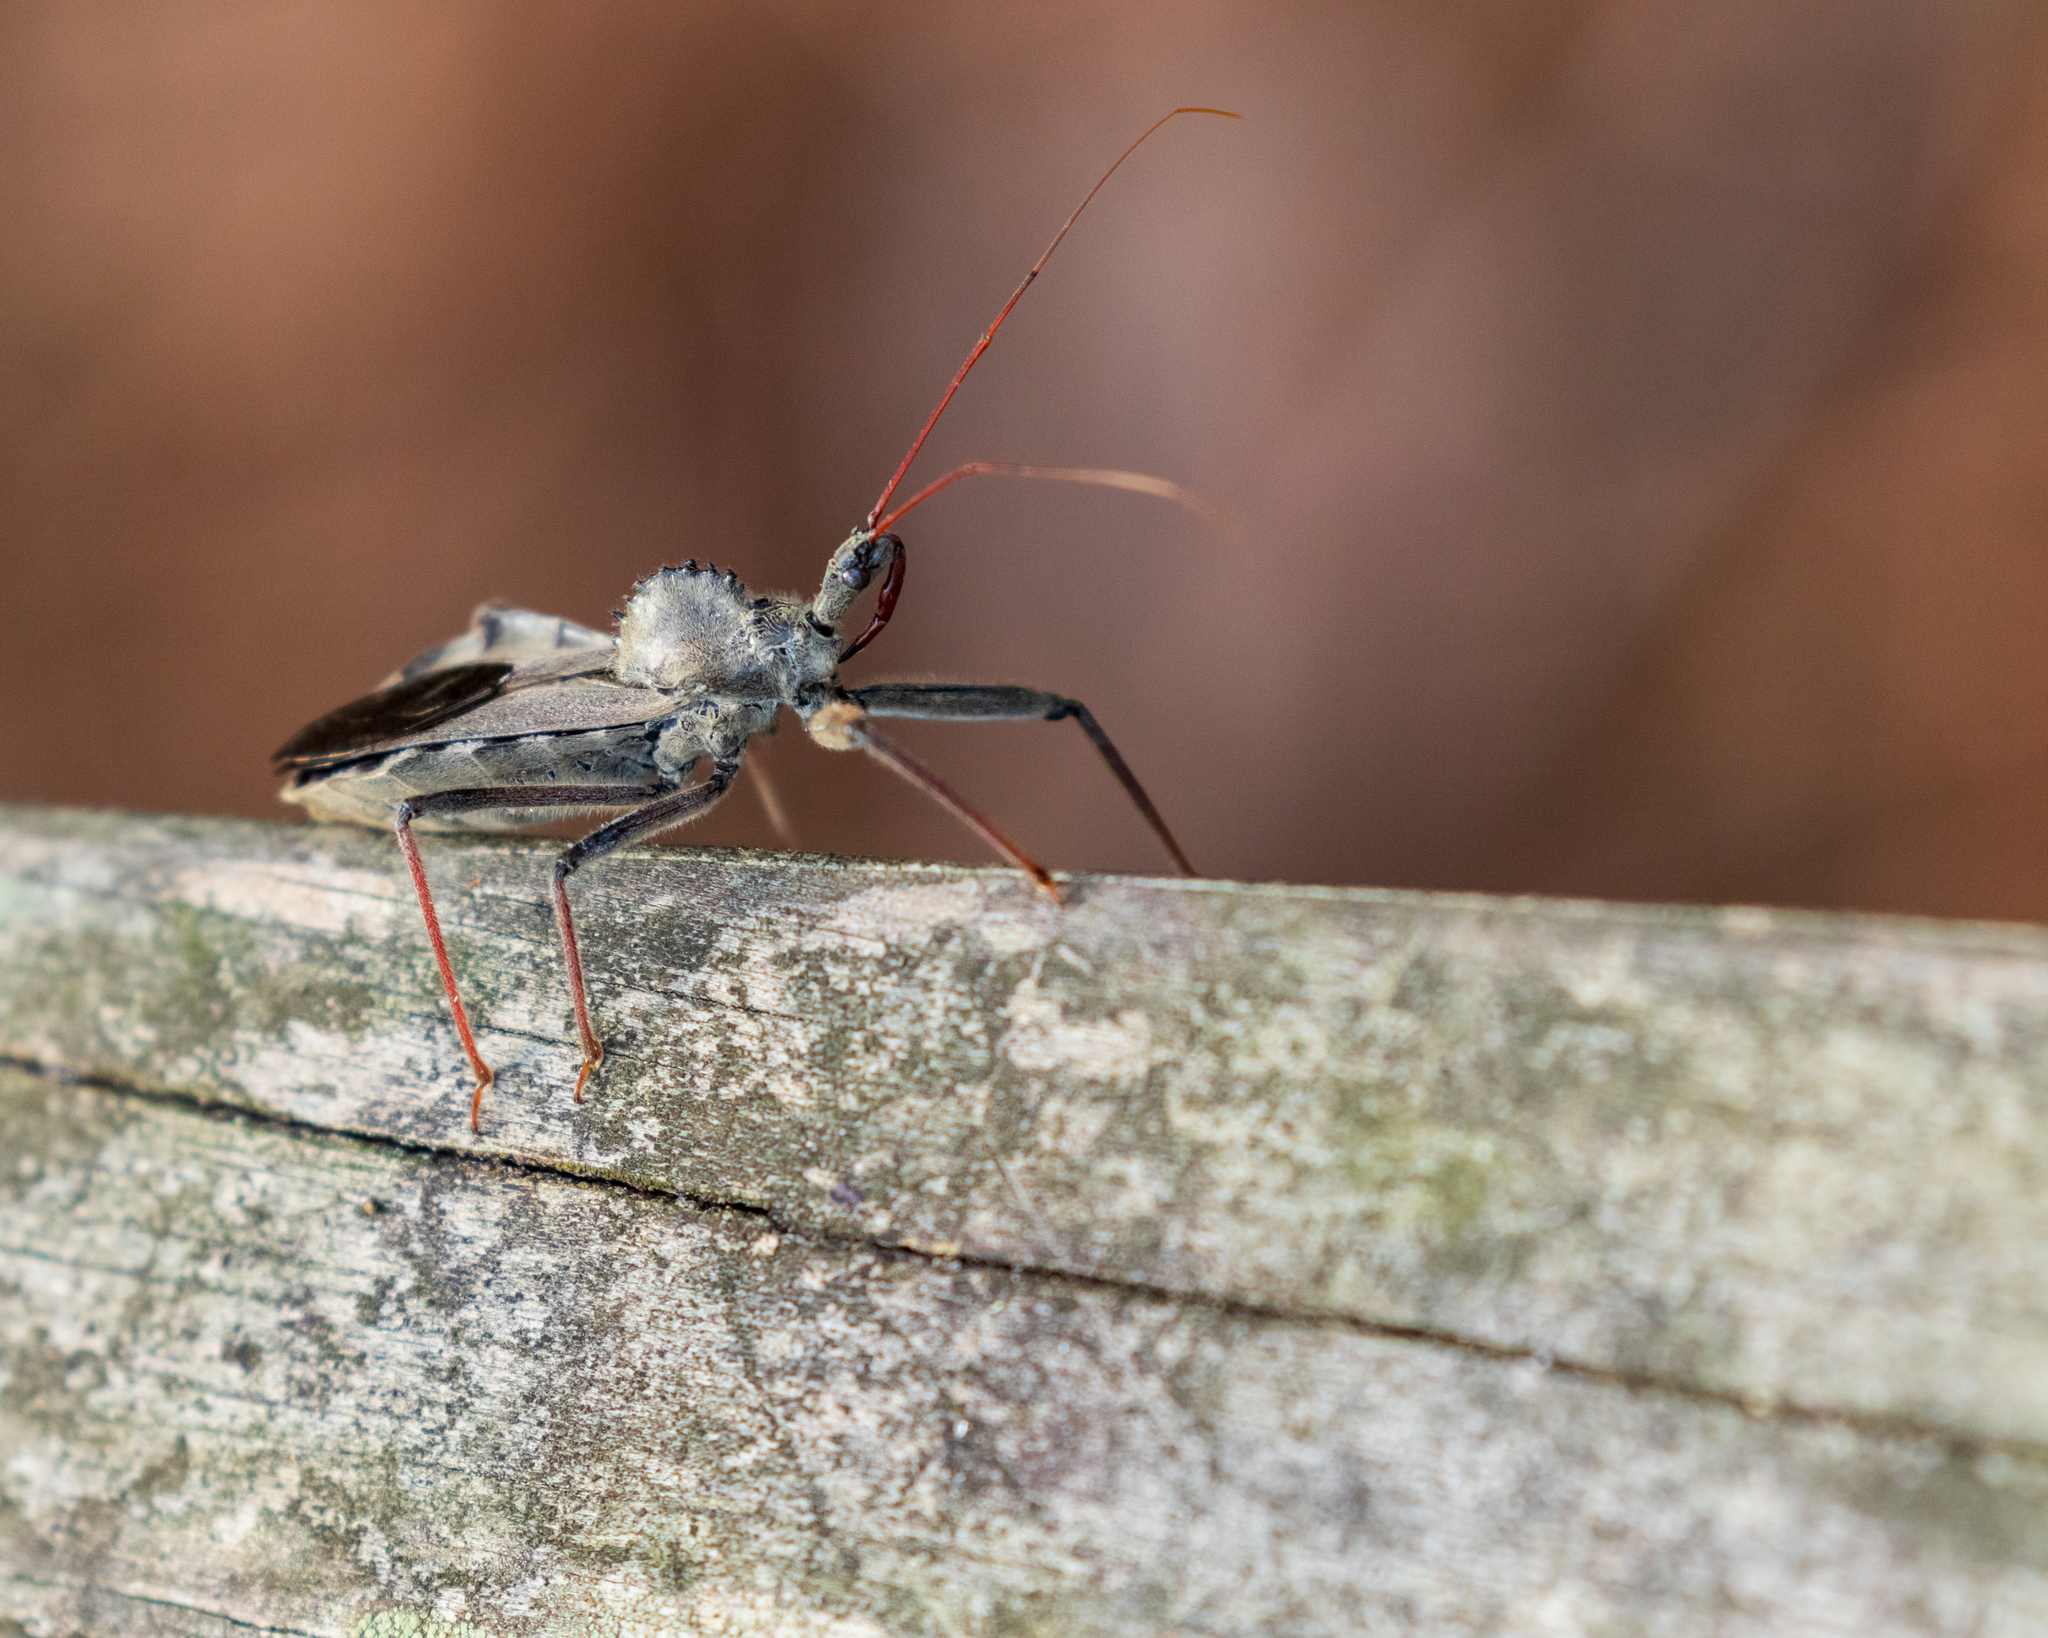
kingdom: Animalia
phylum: Arthropoda
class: Insecta
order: Hemiptera
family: Reduviidae
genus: Arilus
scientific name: Arilus cristatus
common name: North american wheel bug
